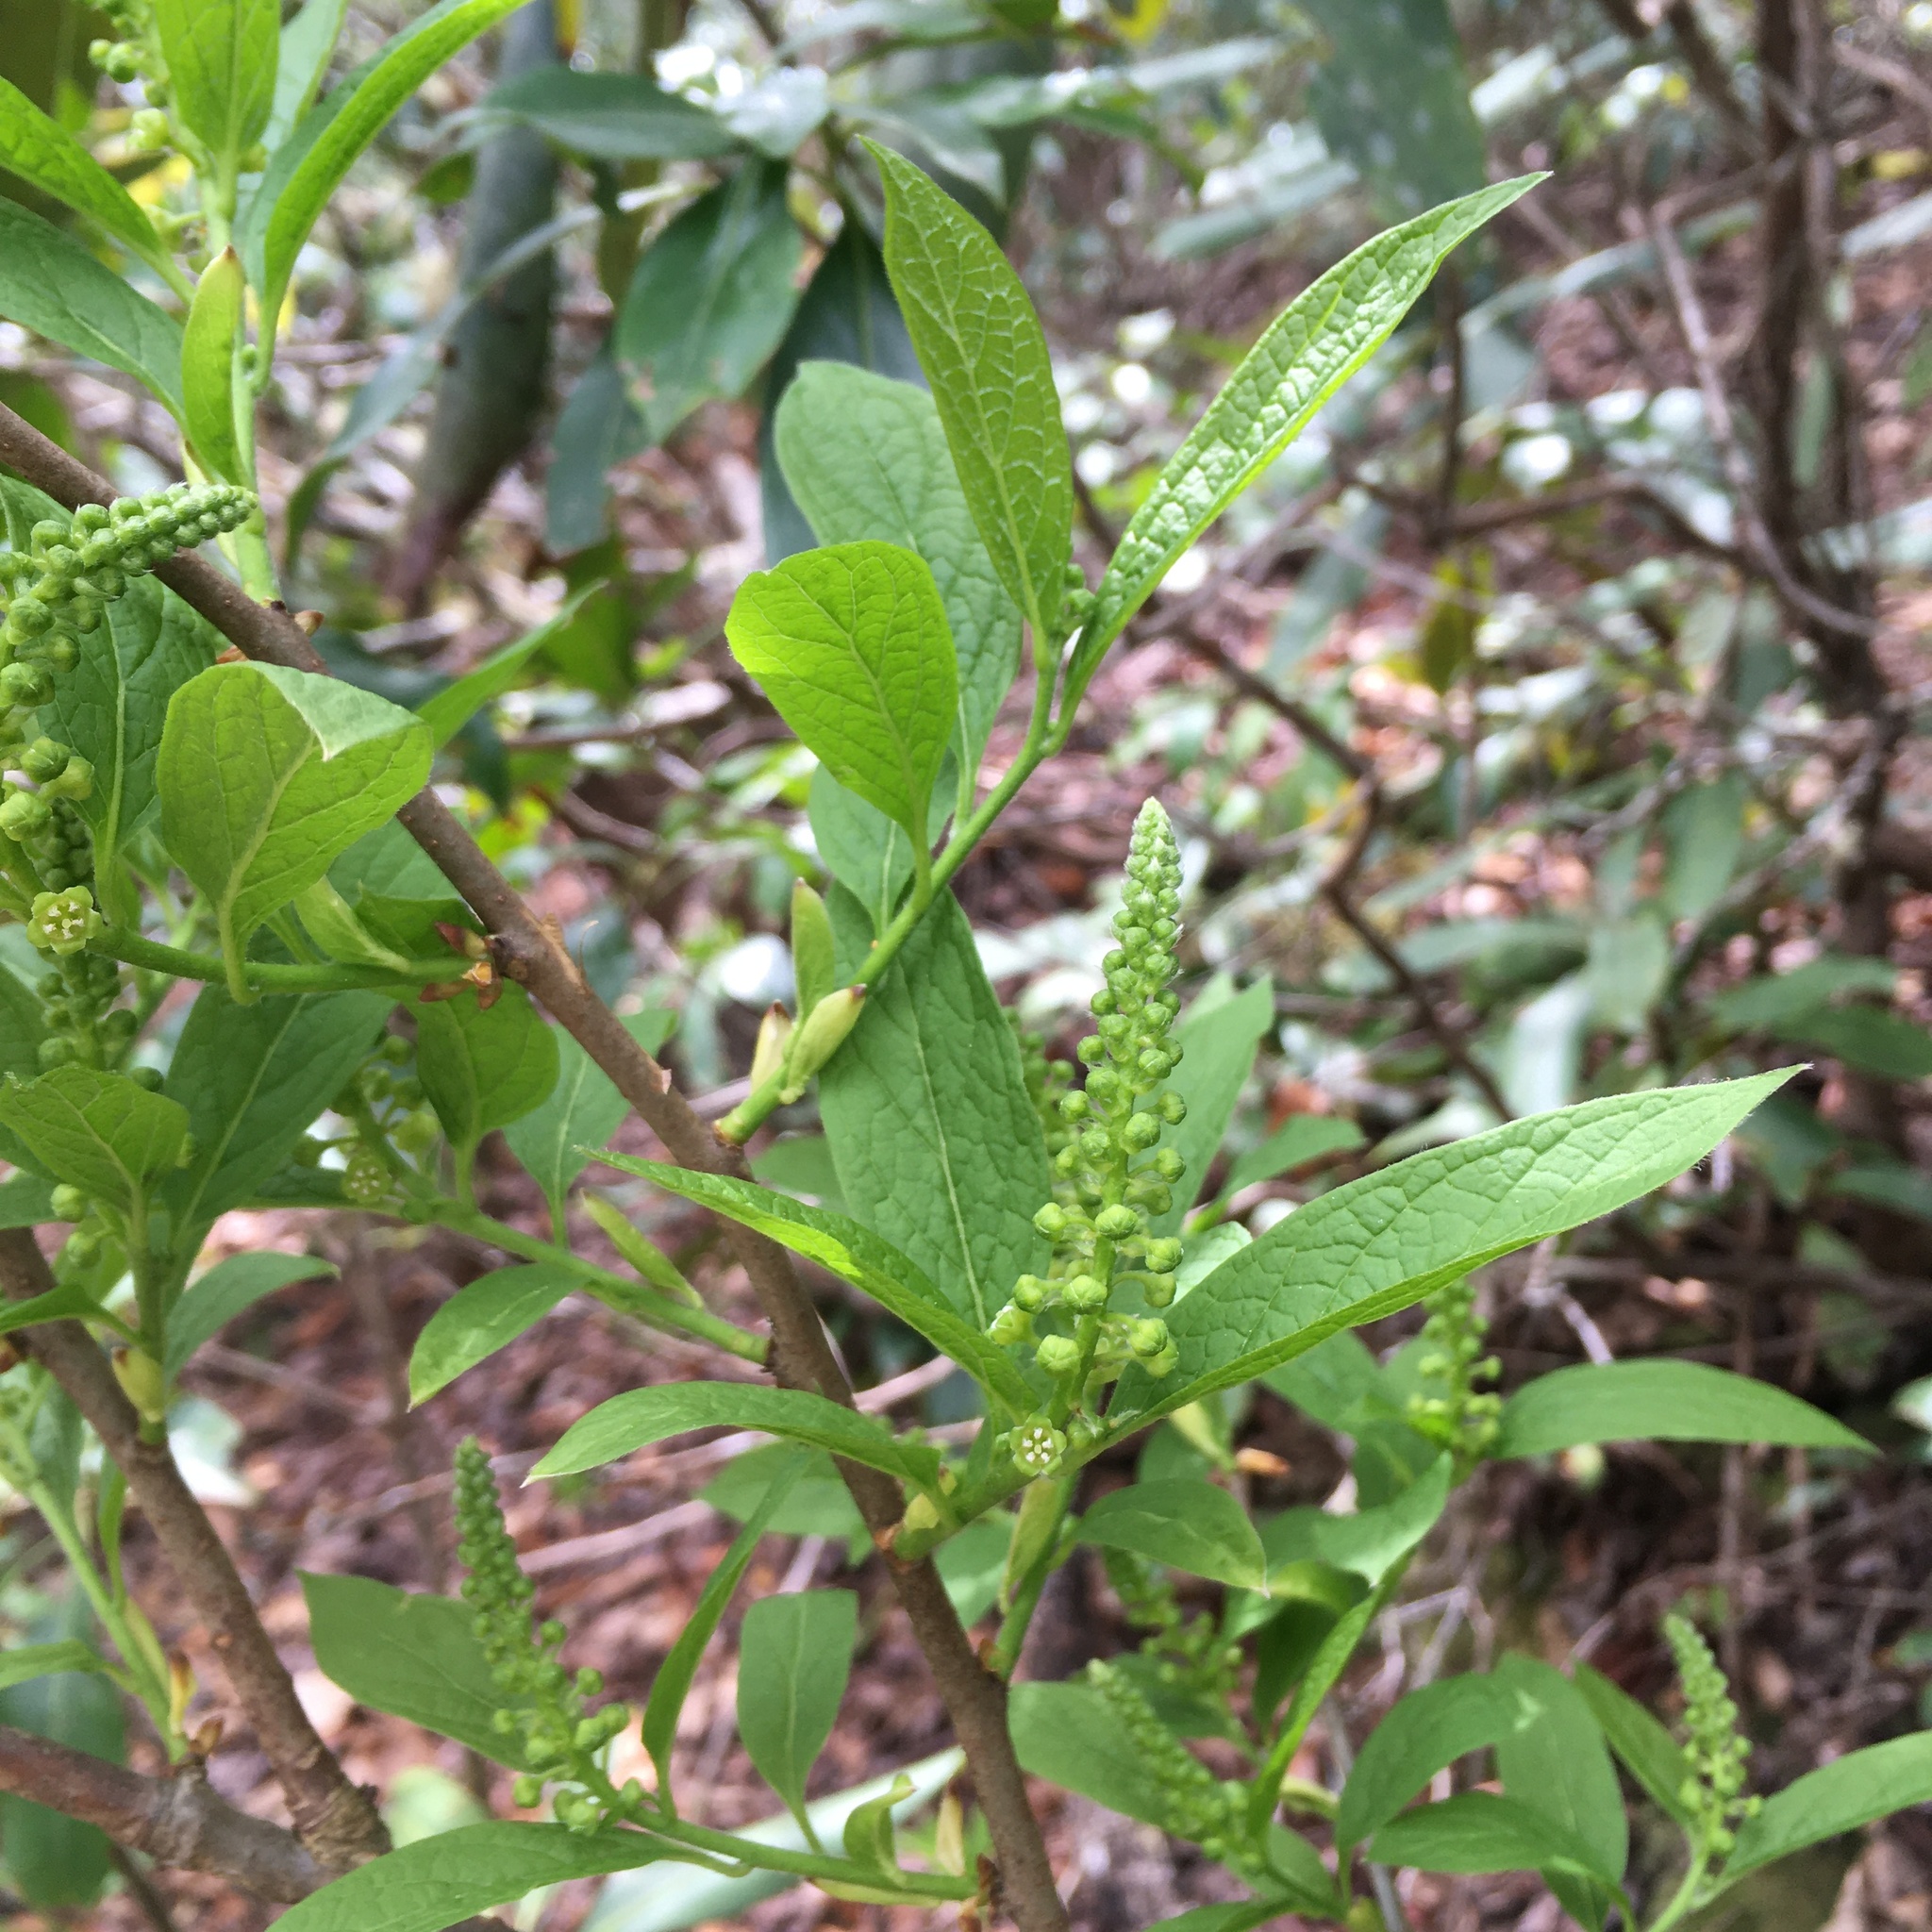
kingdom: Plantae
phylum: Tracheophyta
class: Magnoliopsida
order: Santalales
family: Cervantesiaceae
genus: Pyrularia
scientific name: Pyrularia pubera
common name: Oilnut
